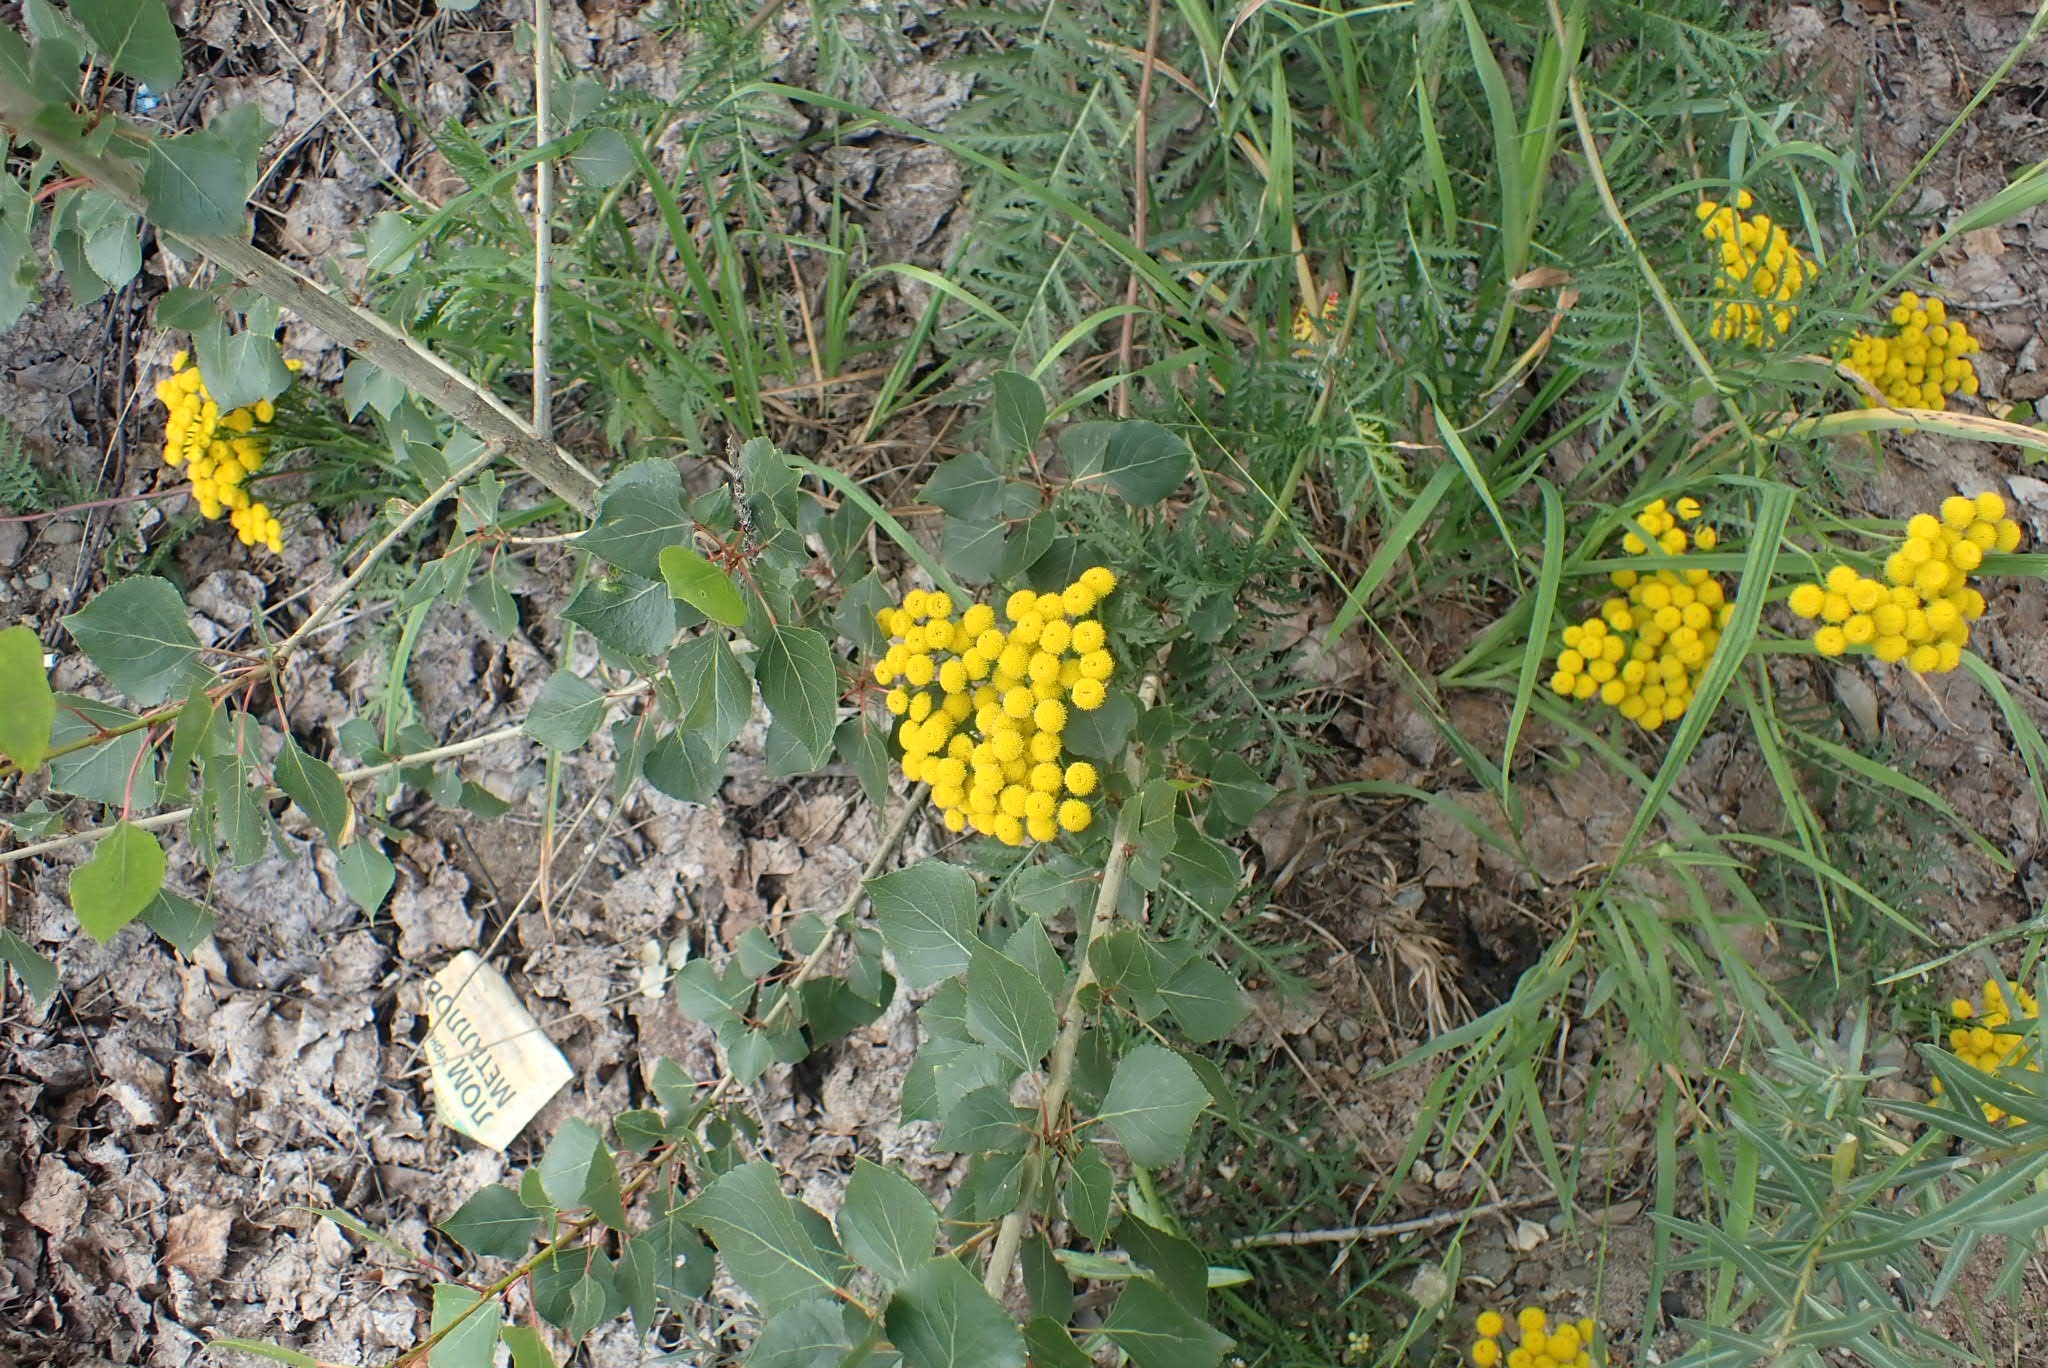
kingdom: Plantae
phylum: Tracheophyta
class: Magnoliopsida
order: Asterales
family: Asteraceae
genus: Tanacetum
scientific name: Tanacetum vulgare
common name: Common tansy
